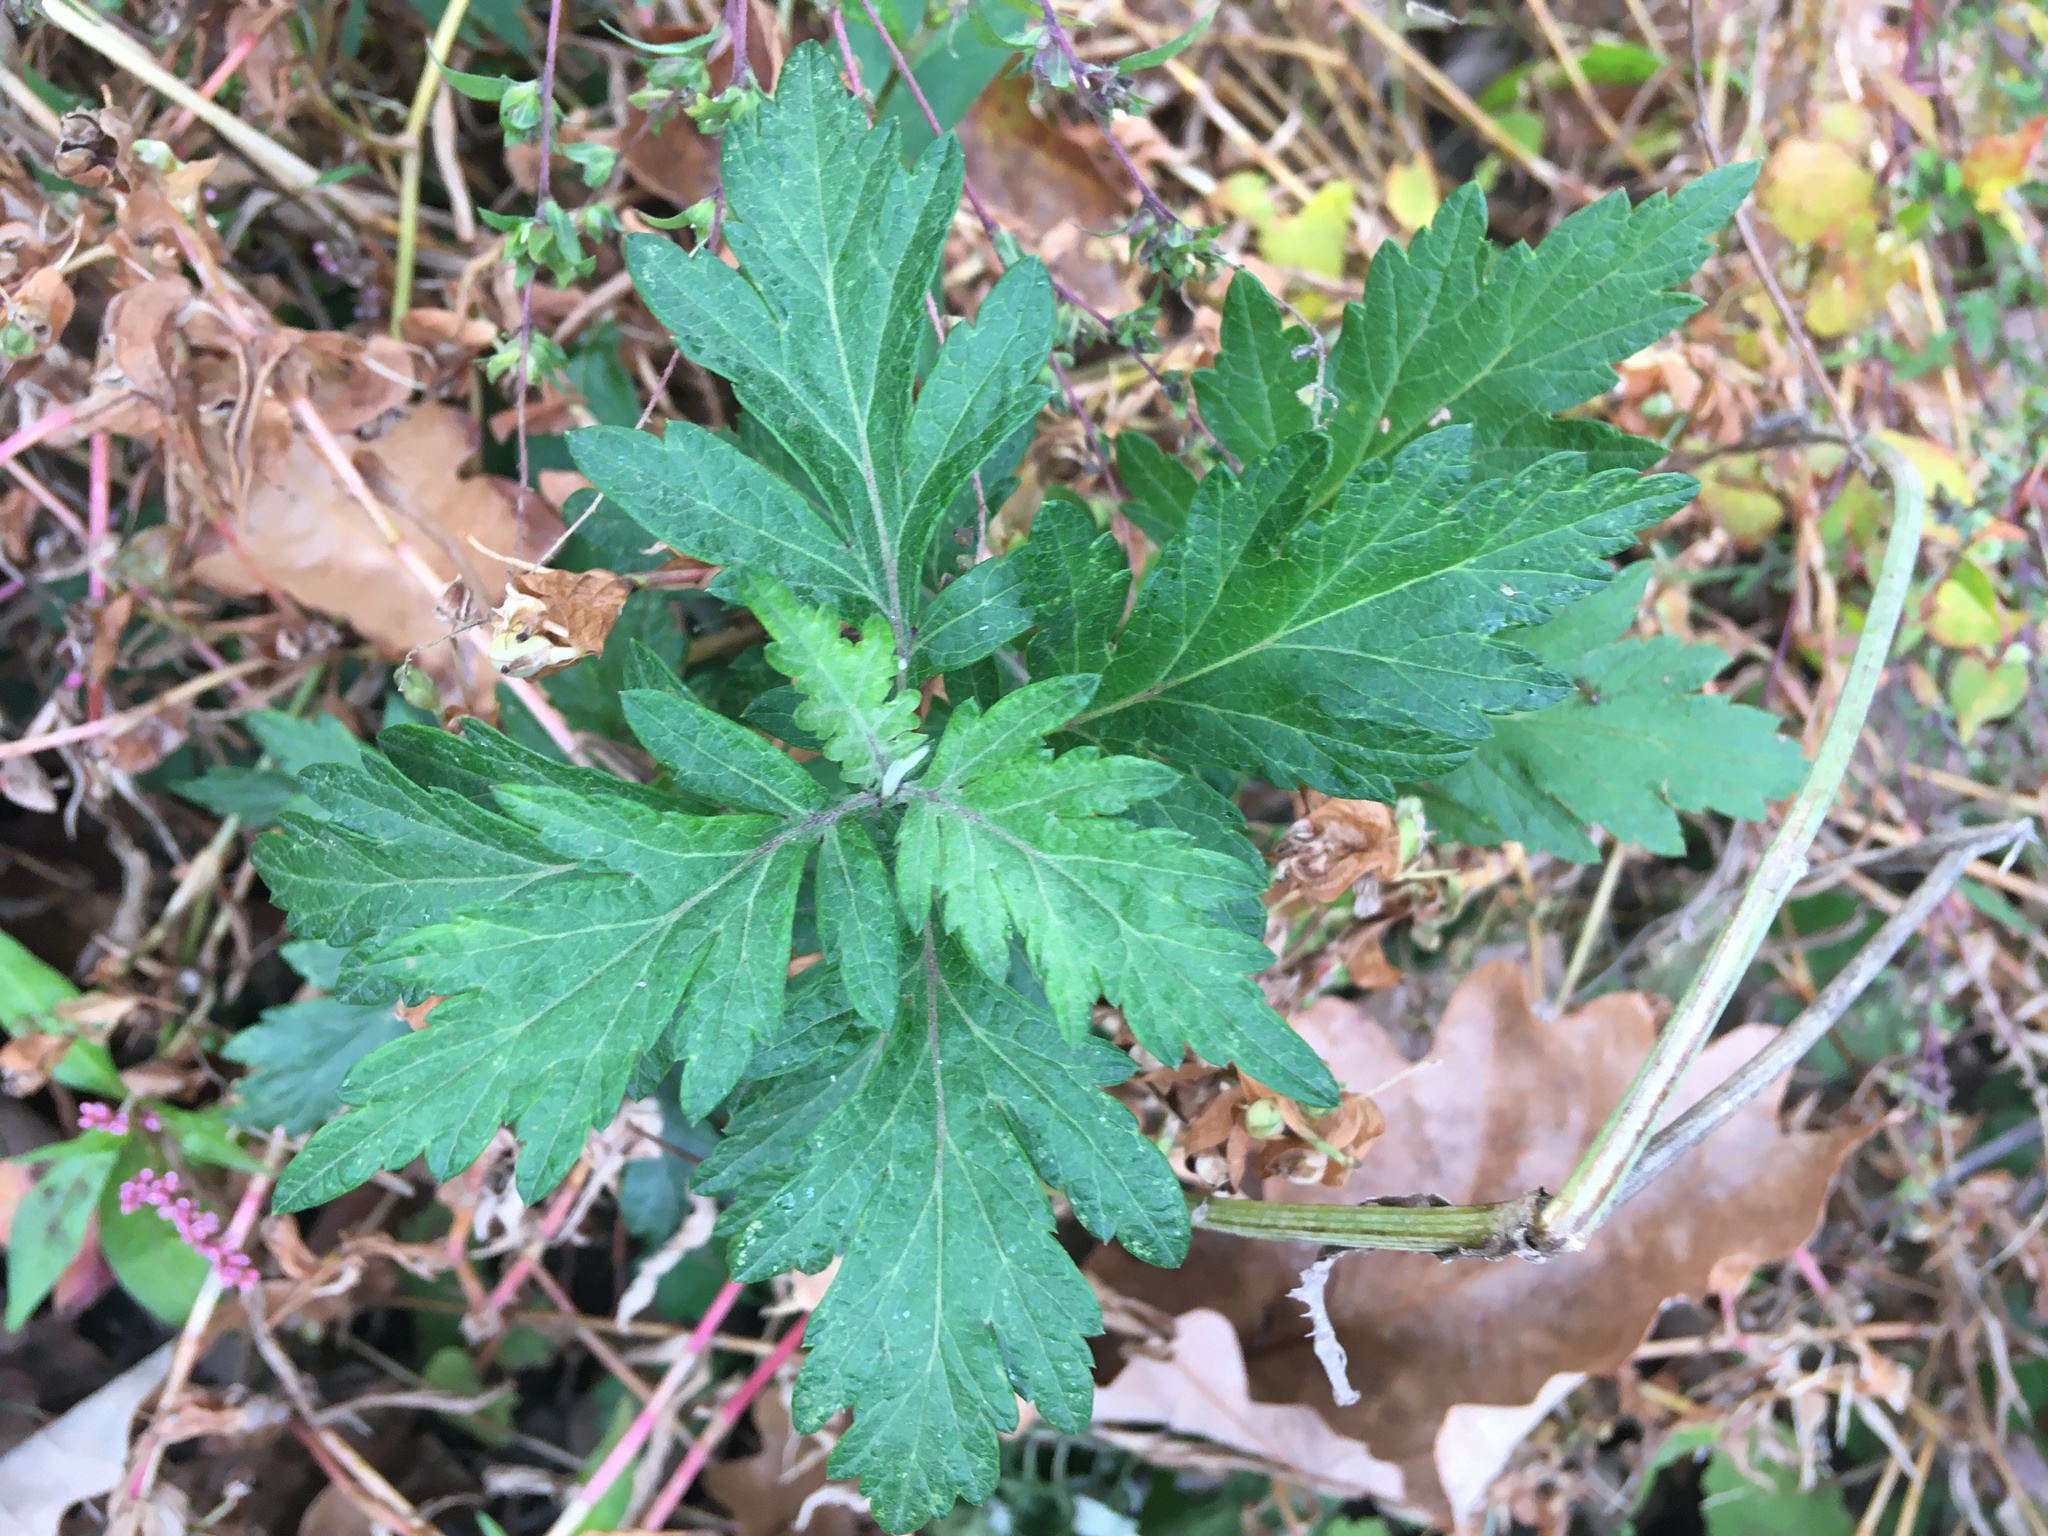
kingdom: Plantae
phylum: Tracheophyta
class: Magnoliopsida
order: Asterales
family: Asteraceae
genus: Artemisia
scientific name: Artemisia vulgaris
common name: Mugwort
